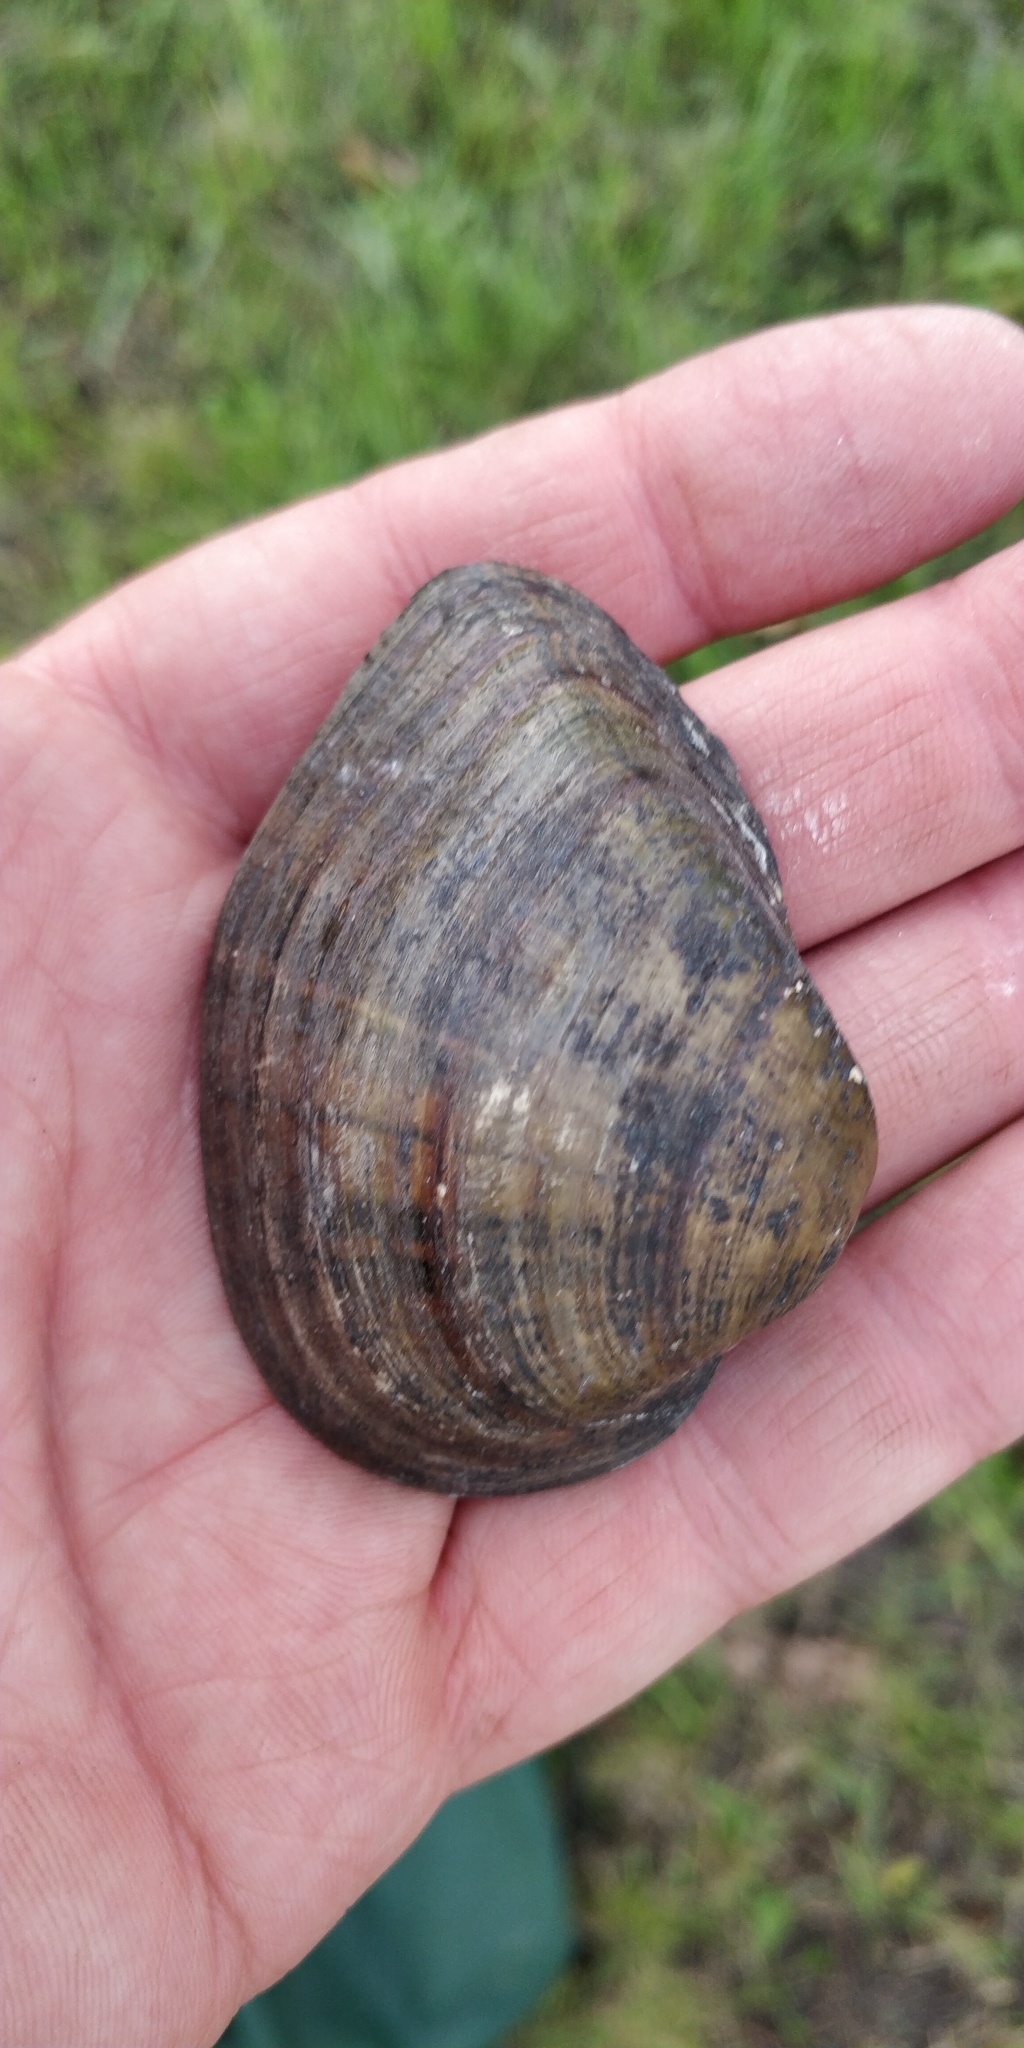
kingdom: Animalia
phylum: Mollusca
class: Bivalvia
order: Unionida
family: Unionidae
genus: Truncilla
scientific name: Truncilla truncata
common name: Deertoe
